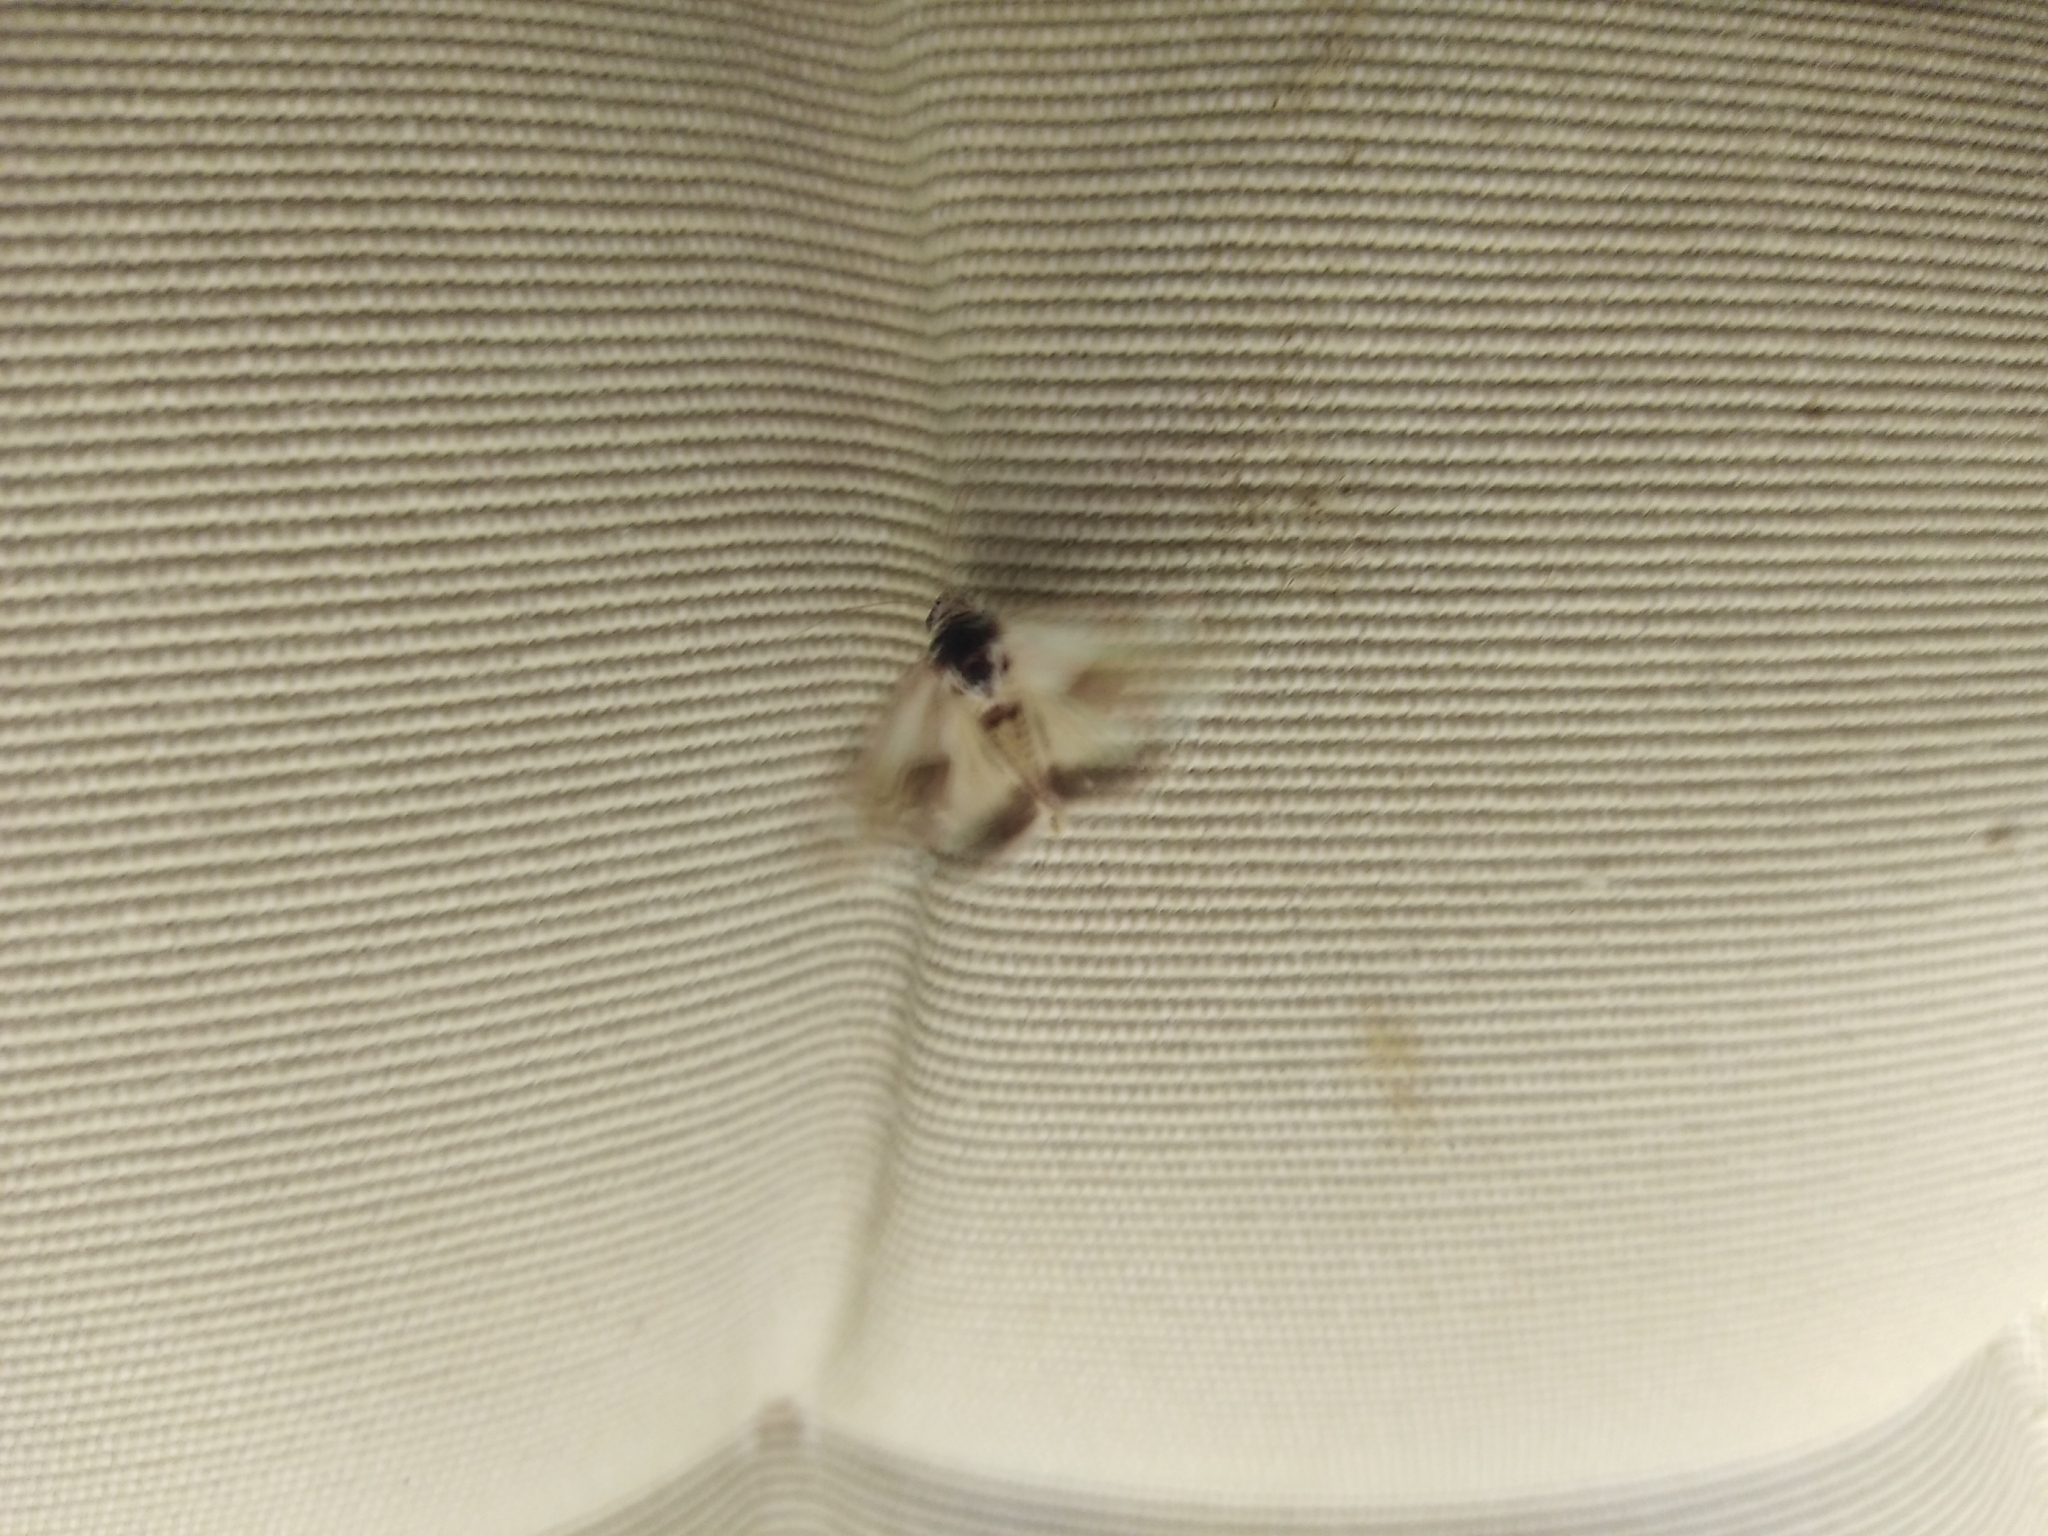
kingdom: Animalia
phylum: Arthropoda
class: Insecta
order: Lepidoptera
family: Noctuidae
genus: Acontia
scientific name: Acontia lucida
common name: Pale shoulder
